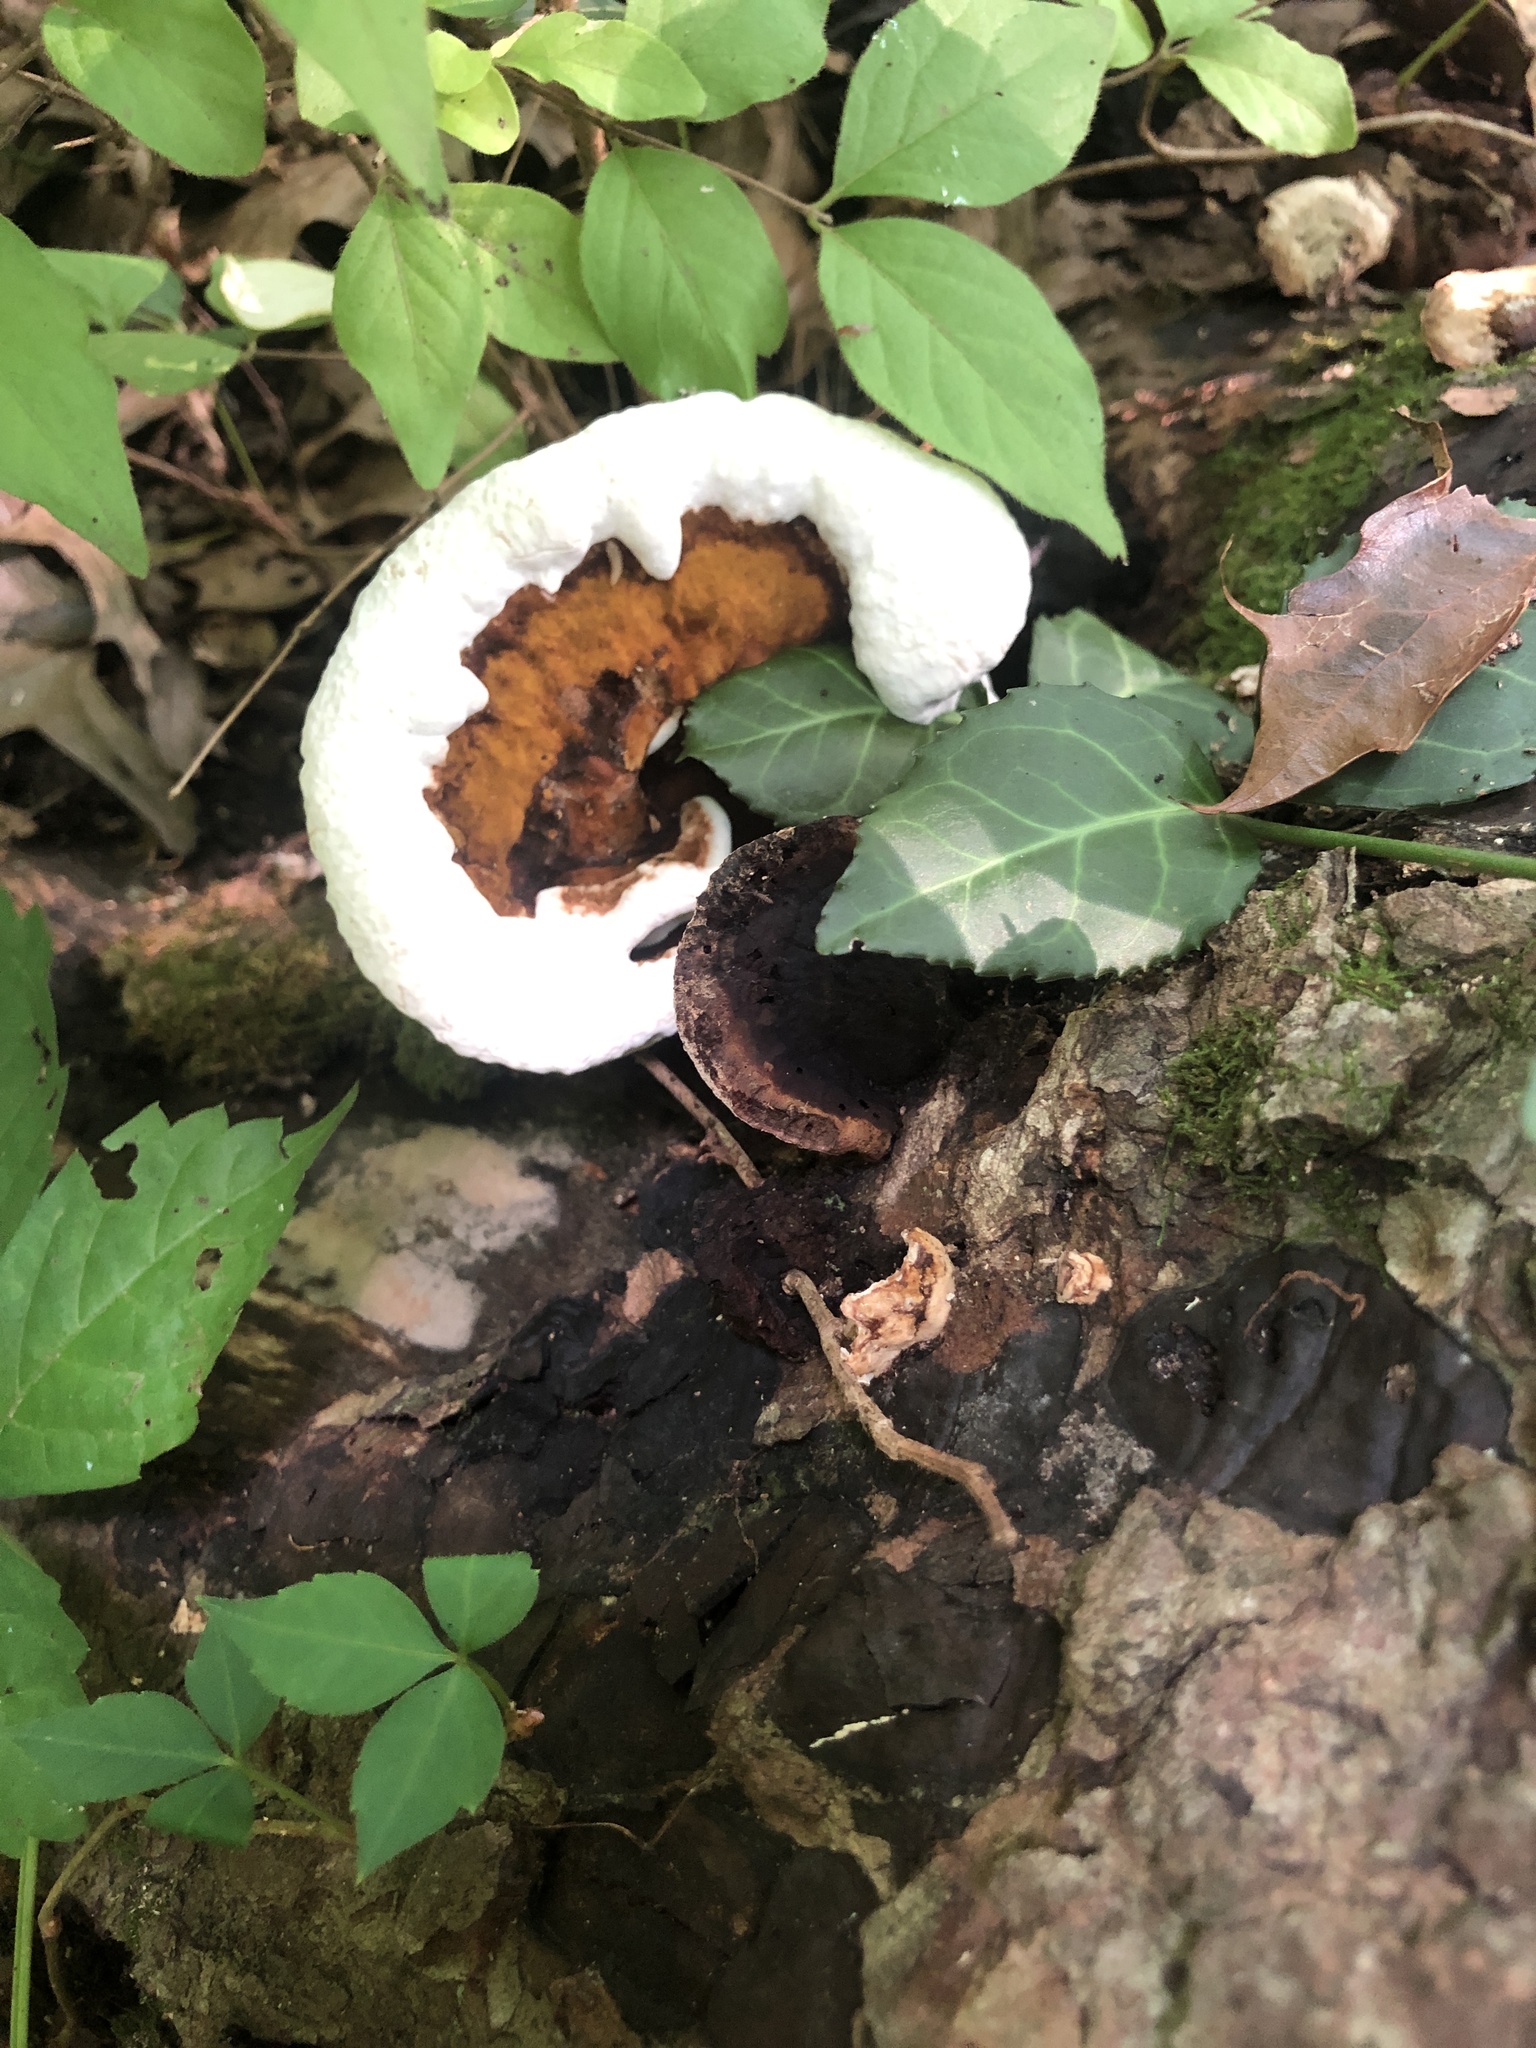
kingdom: Fungi
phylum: Basidiomycota
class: Agaricomycetes
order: Polyporales
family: Polyporaceae
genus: Ganoderma
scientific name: Ganoderma lobatum
